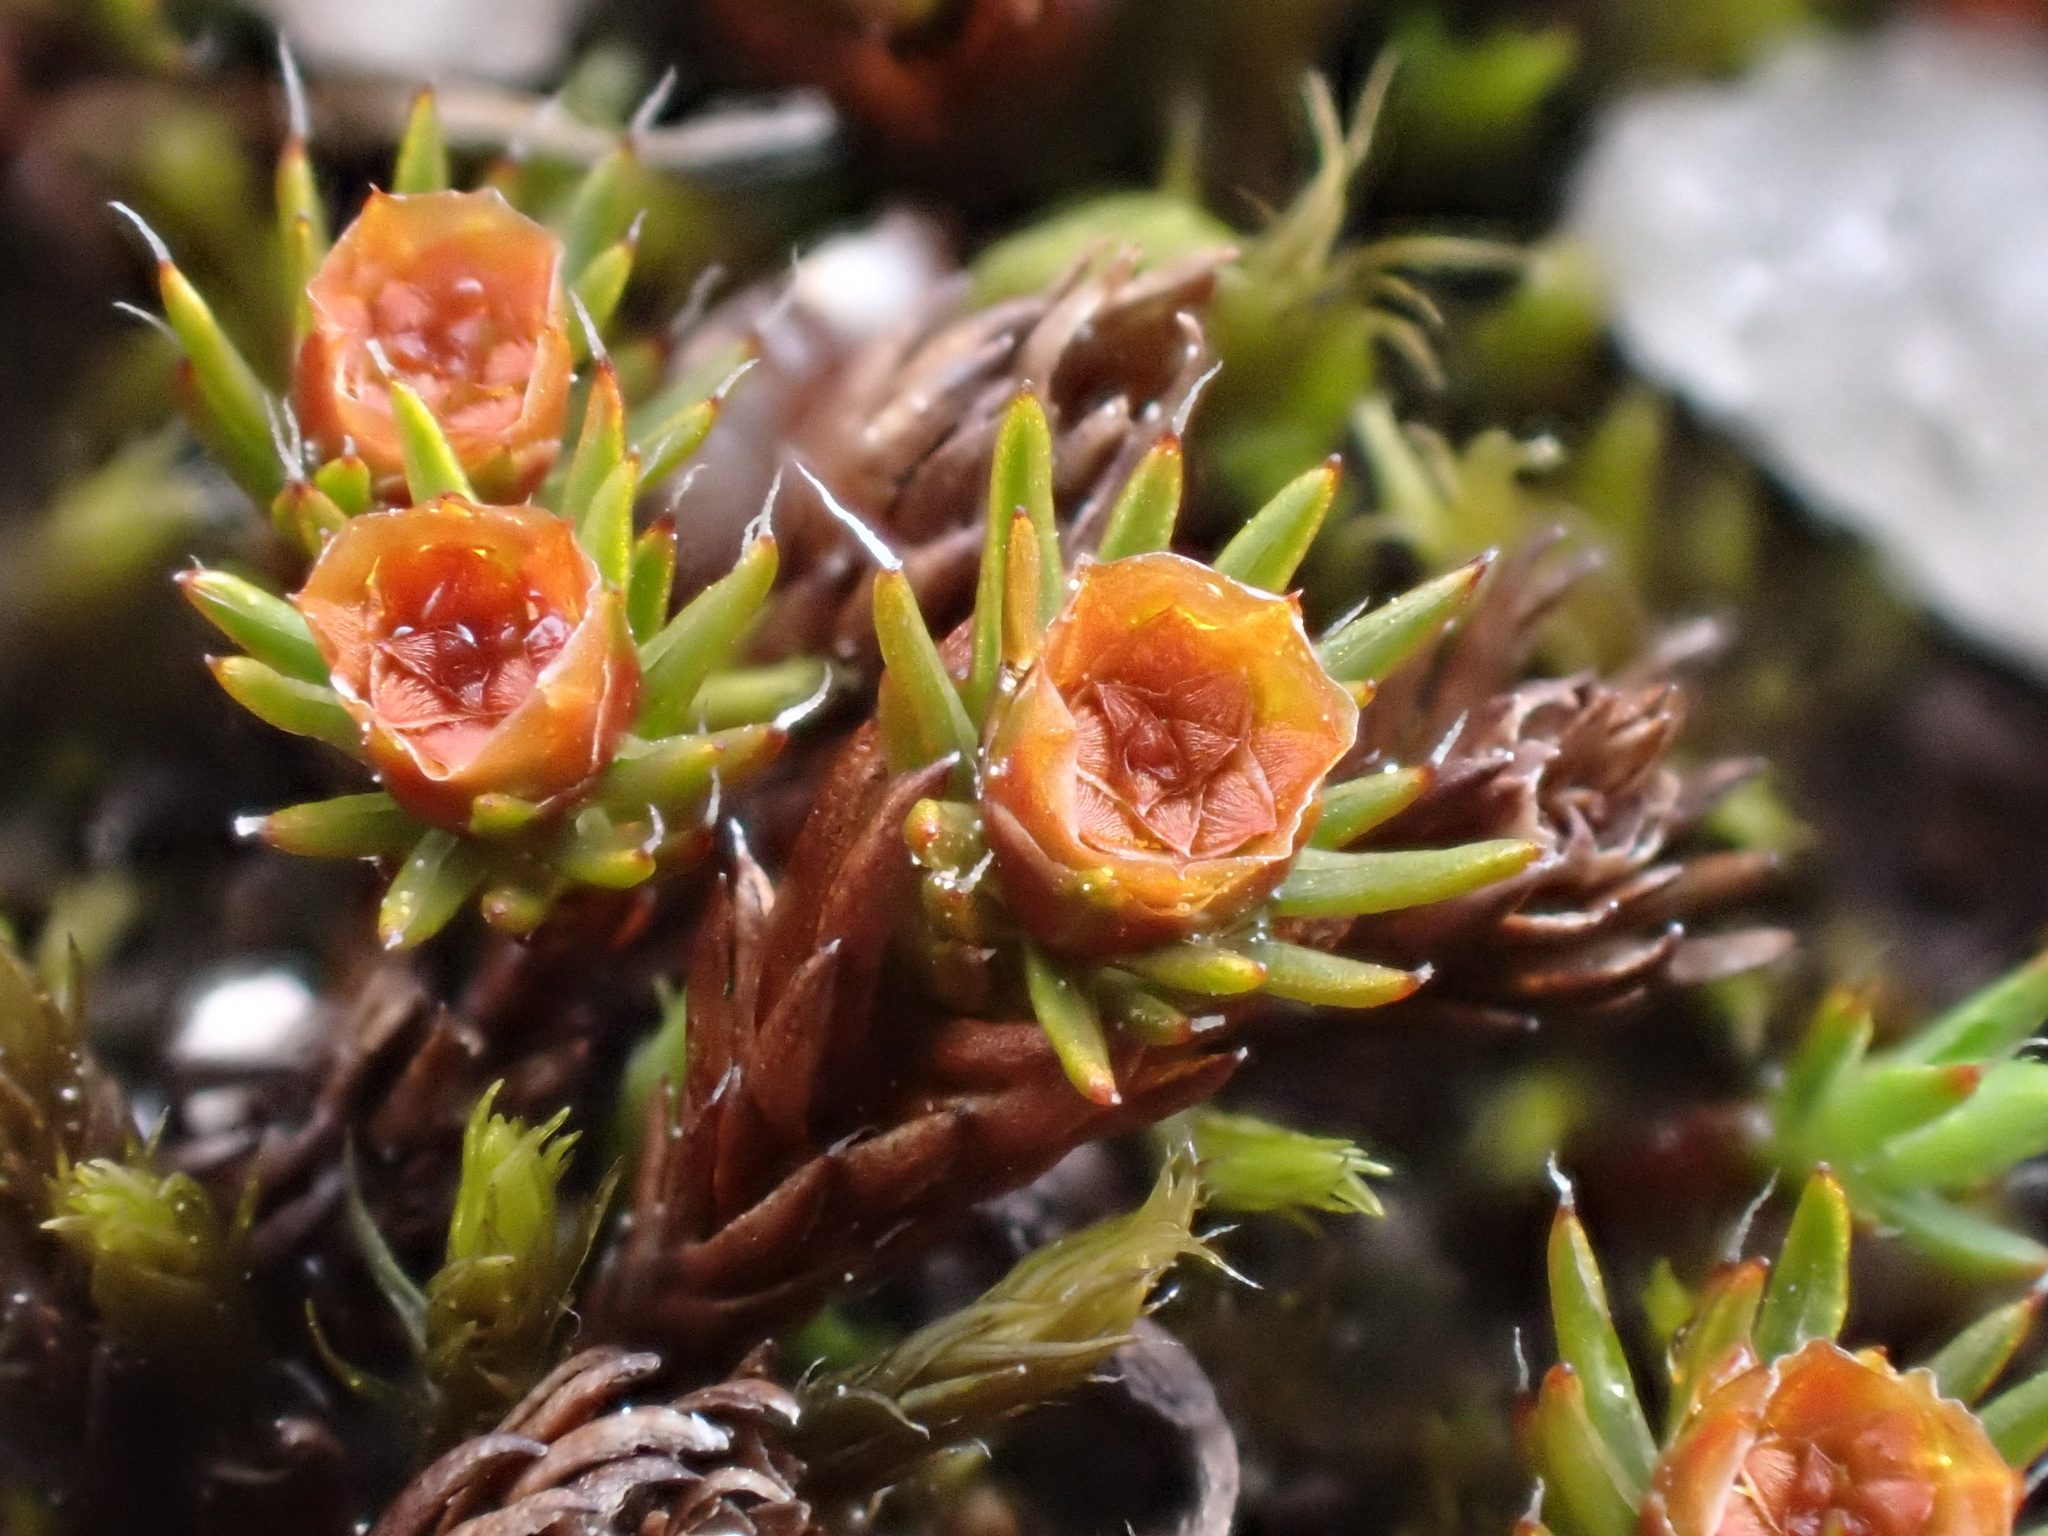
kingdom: Plantae
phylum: Bryophyta
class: Polytrichopsida
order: Polytrichales
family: Polytrichaceae
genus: Polytrichum
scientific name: Polytrichum piliferum
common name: Bristly haircap
